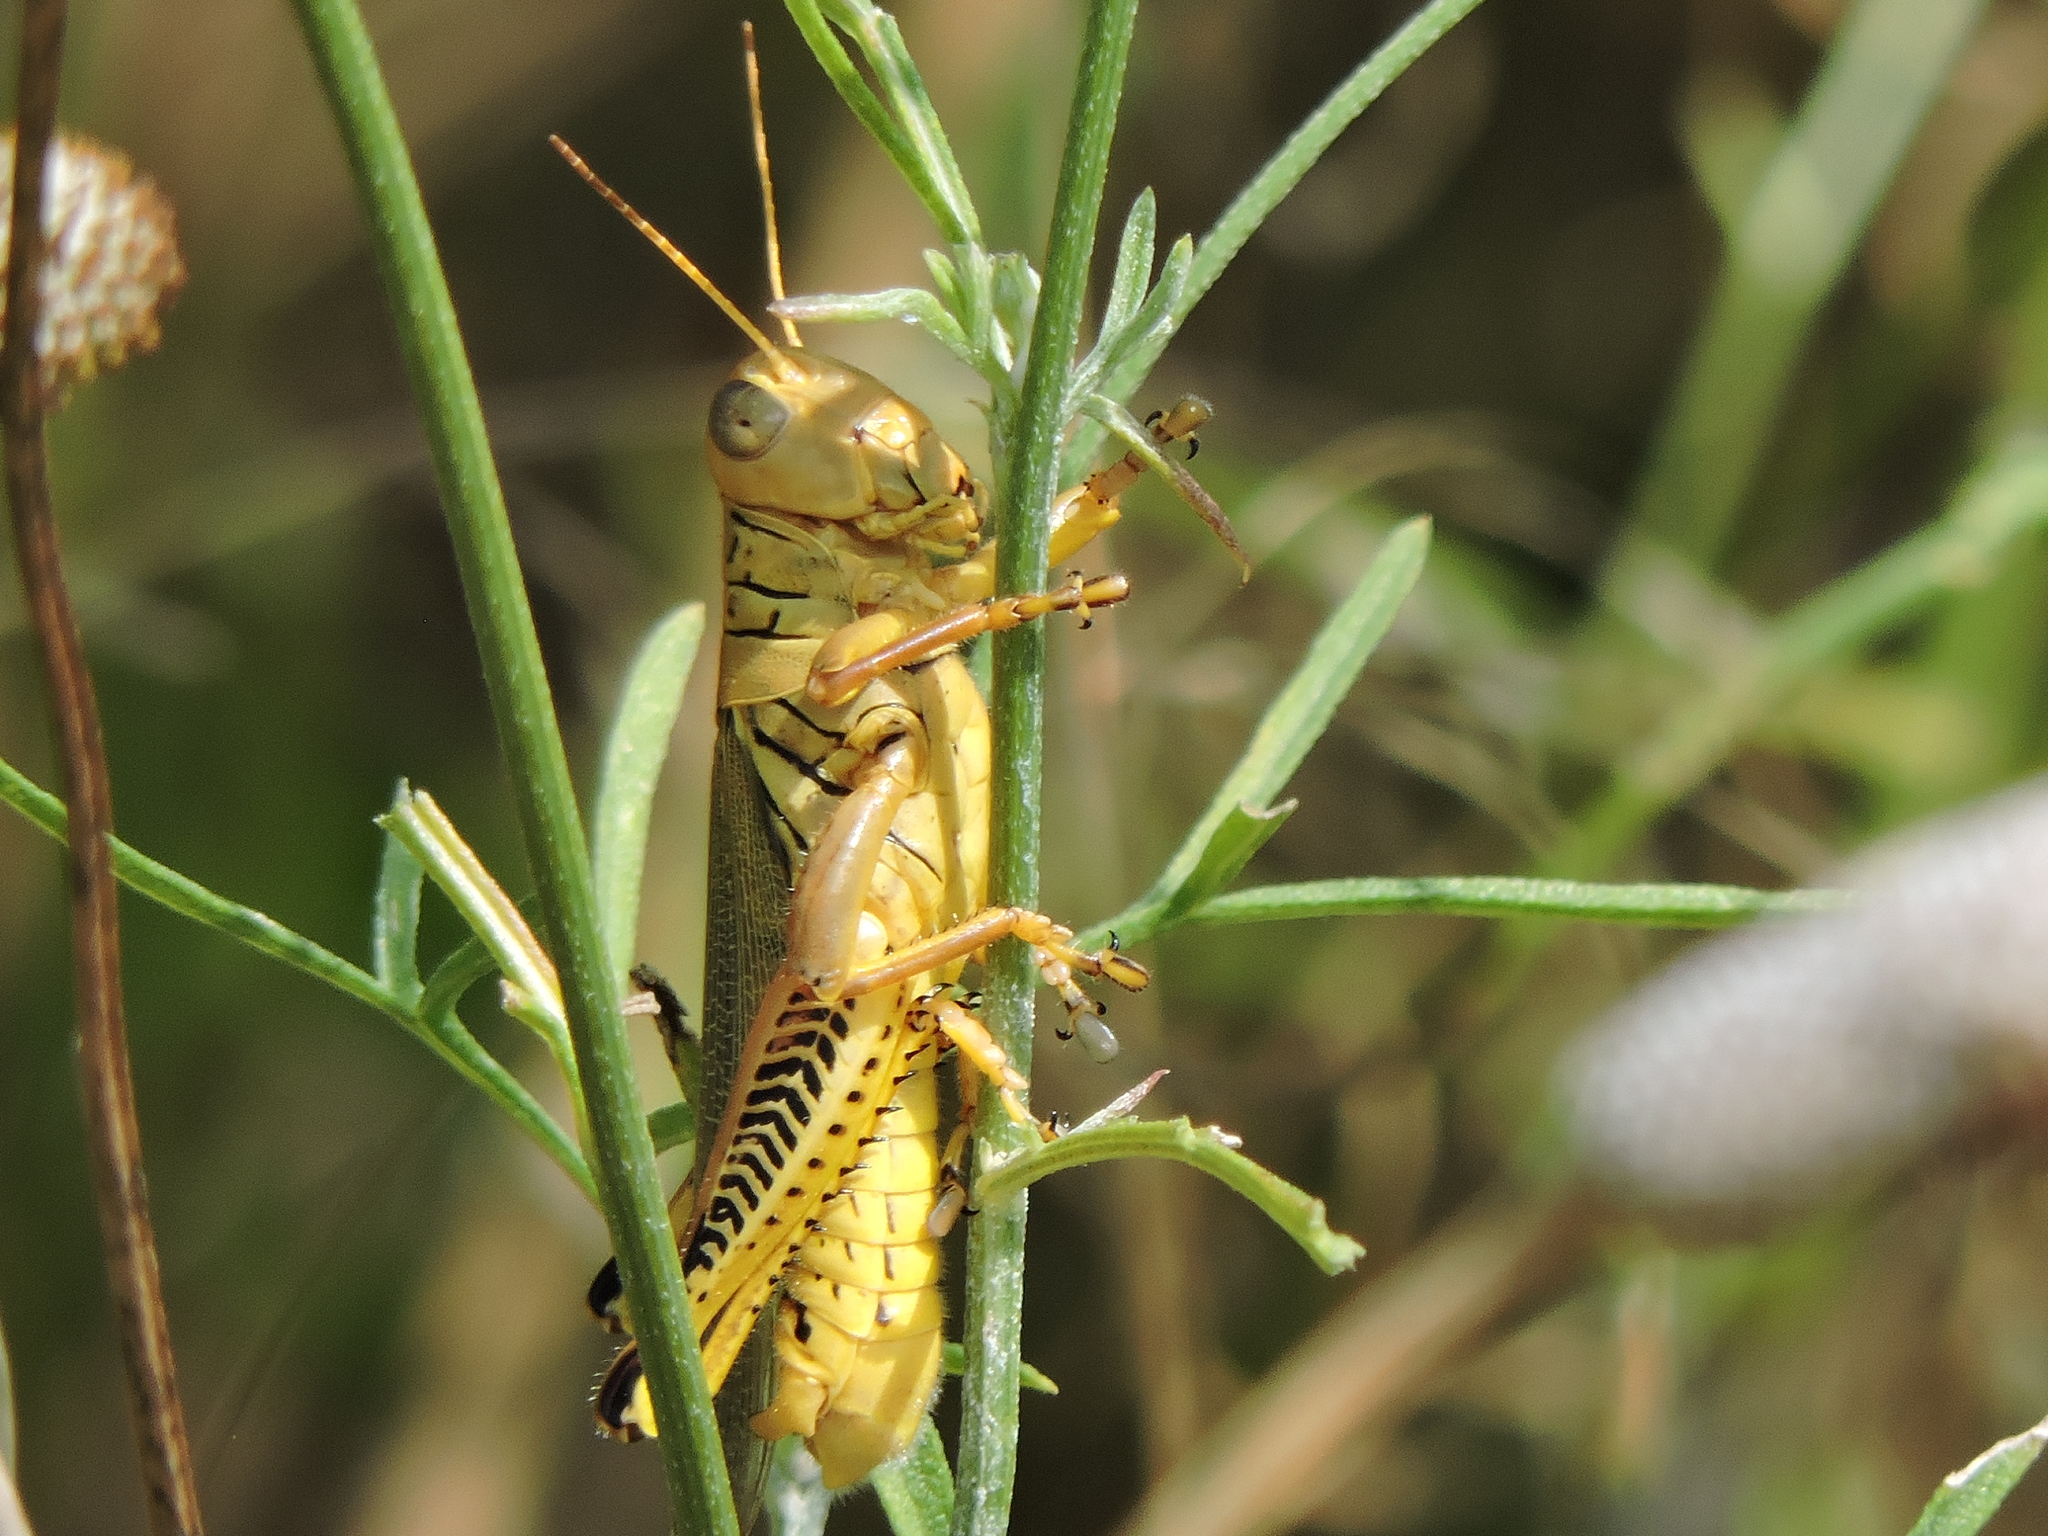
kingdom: Animalia
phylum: Arthropoda
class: Insecta
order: Orthoptera
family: Acrididae
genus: Melanoplus
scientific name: Melanoplus differentialis
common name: Differential grasshopper
